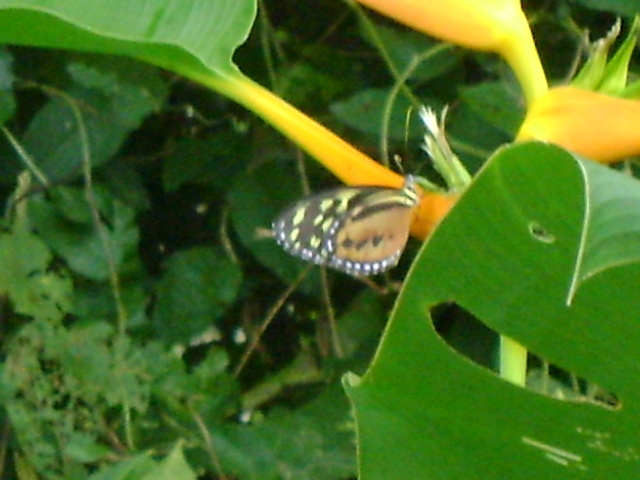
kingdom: Animalia
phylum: Arthropoda
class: Insecta
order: Lepidoptera
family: Nymphalidae
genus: Tithorea
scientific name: Tithorea harmonia
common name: Harmonia tigerwing
